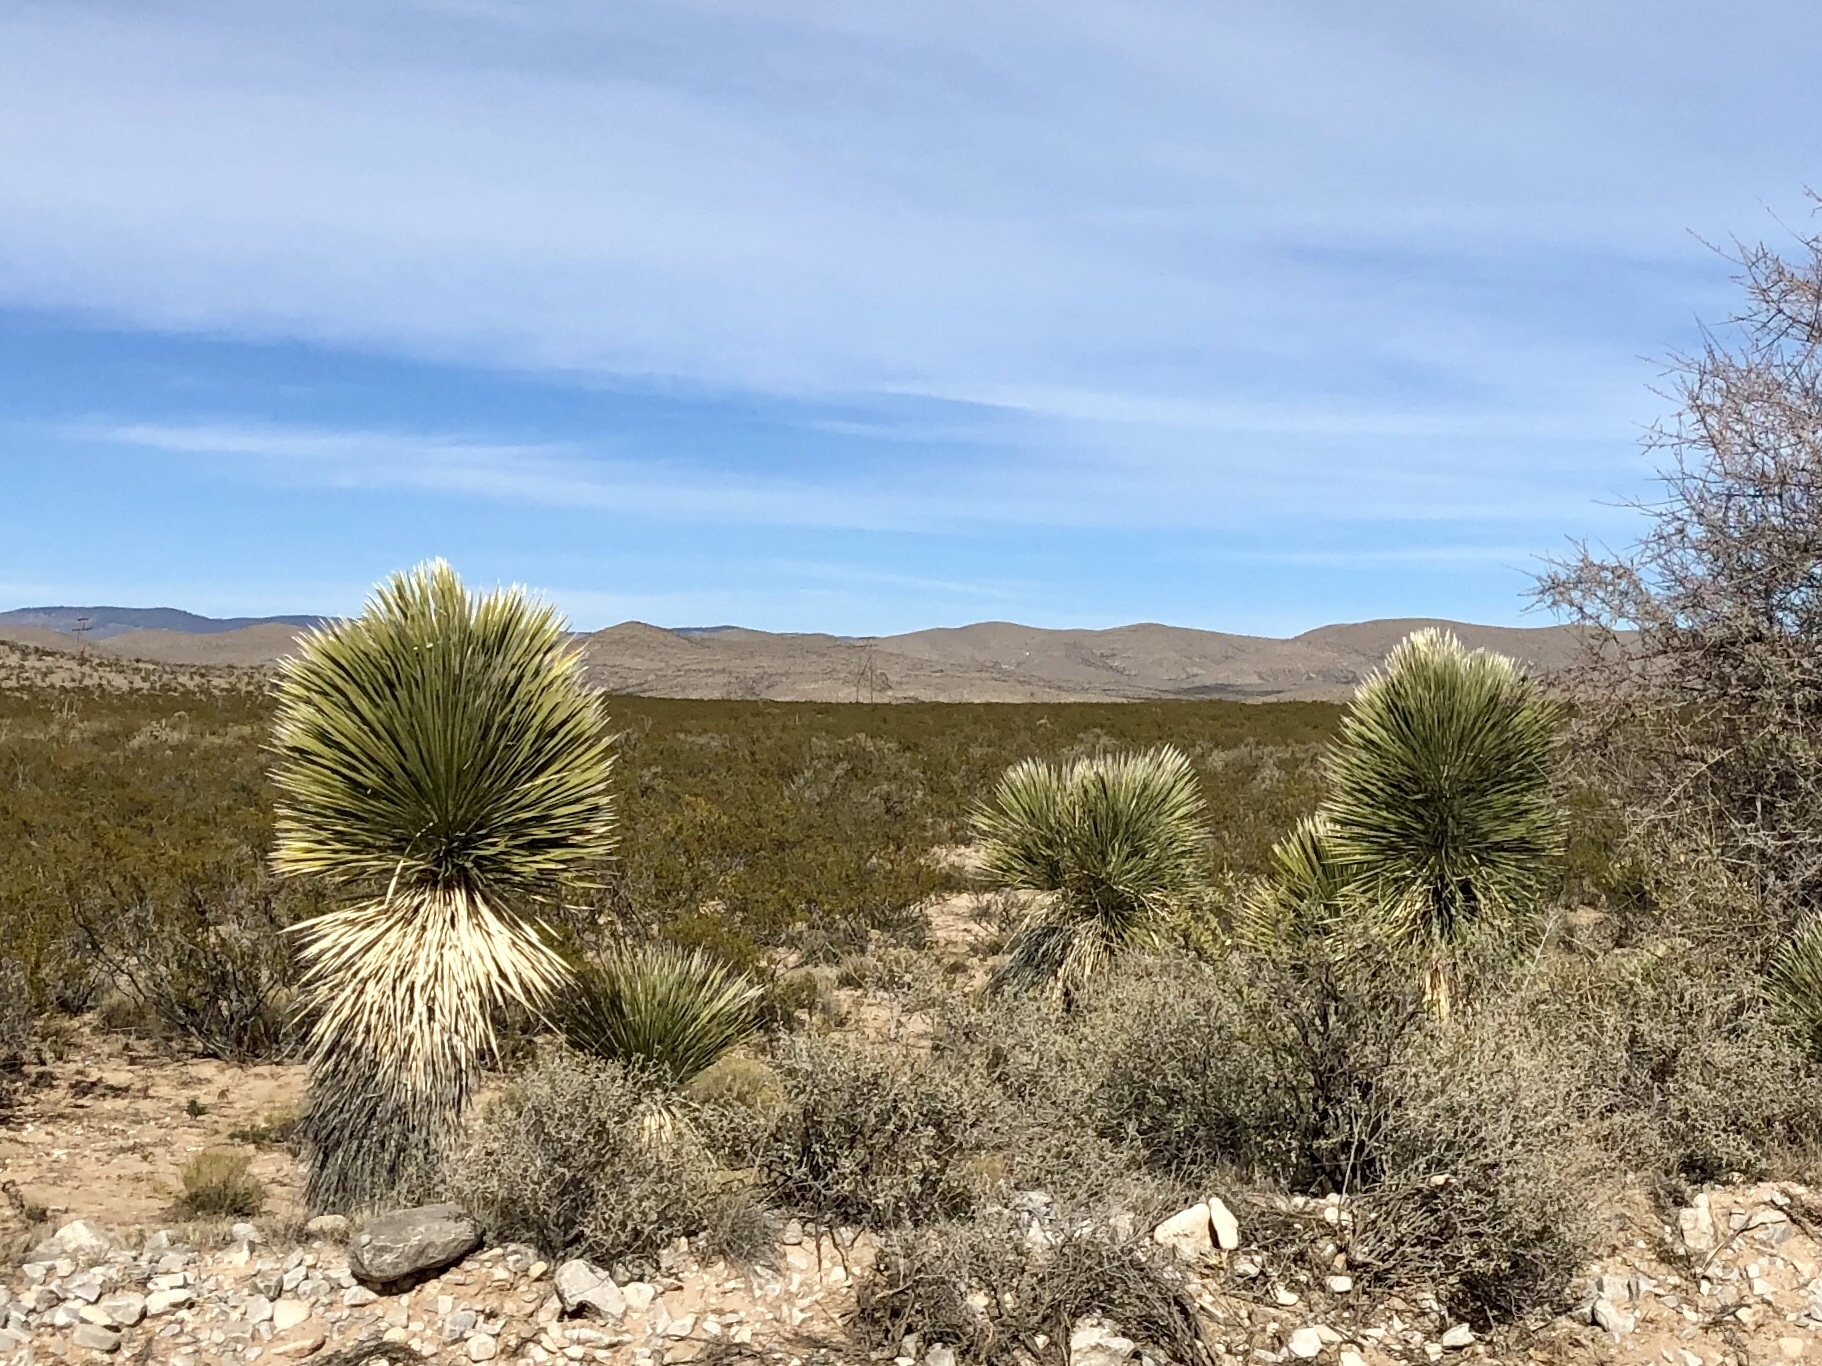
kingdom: Plantae
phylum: Tracheophyta
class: Liliopsida
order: Asparagales
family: Asparagaceae
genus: Yucca
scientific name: Yucca elata
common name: Palmella
